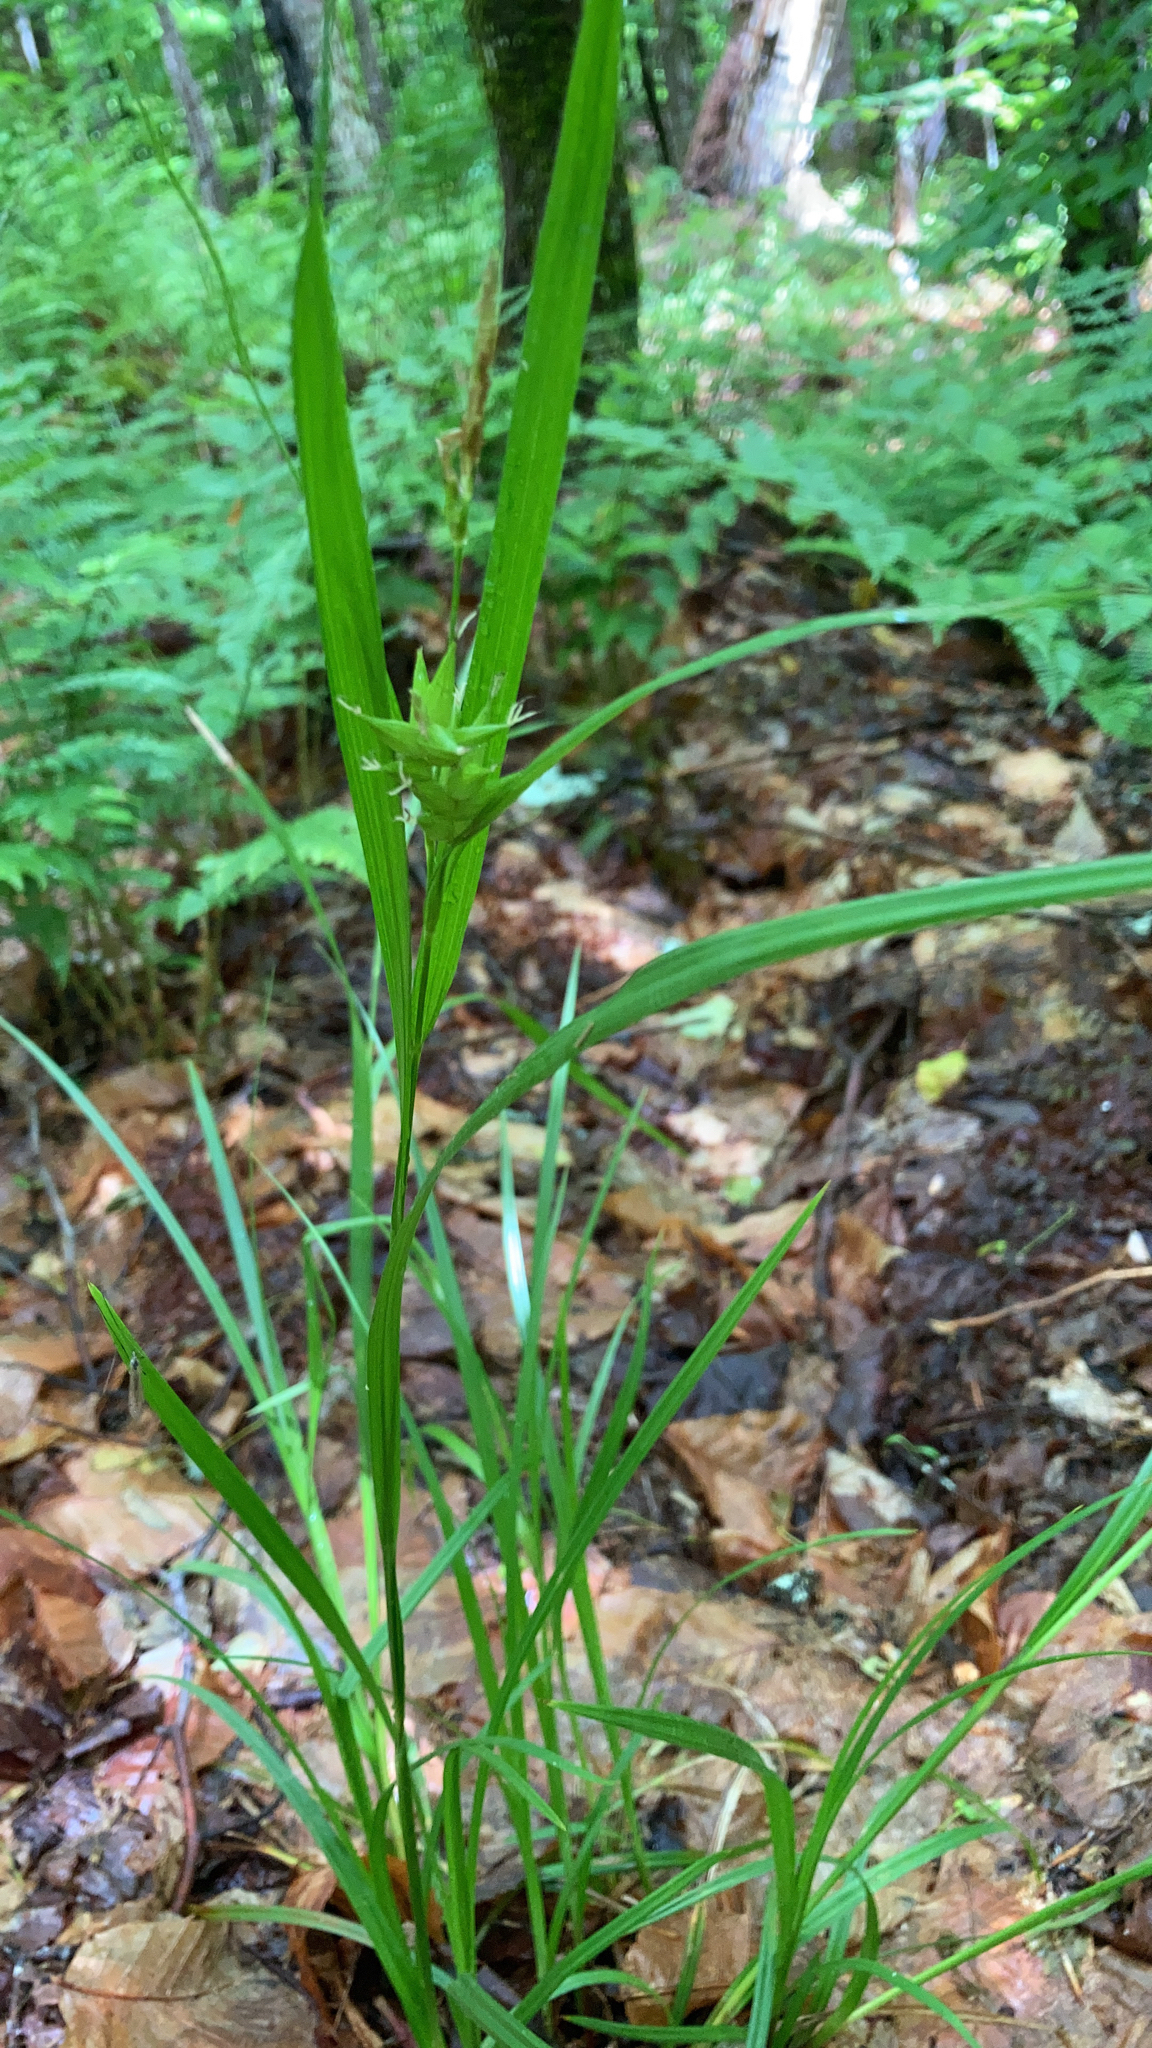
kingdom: Plantae
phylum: Tracheophyta
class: Liliopsida
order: Poales
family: Cyperaceae
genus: Carex
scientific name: Carex intumescens
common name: Greater bladder sedge
